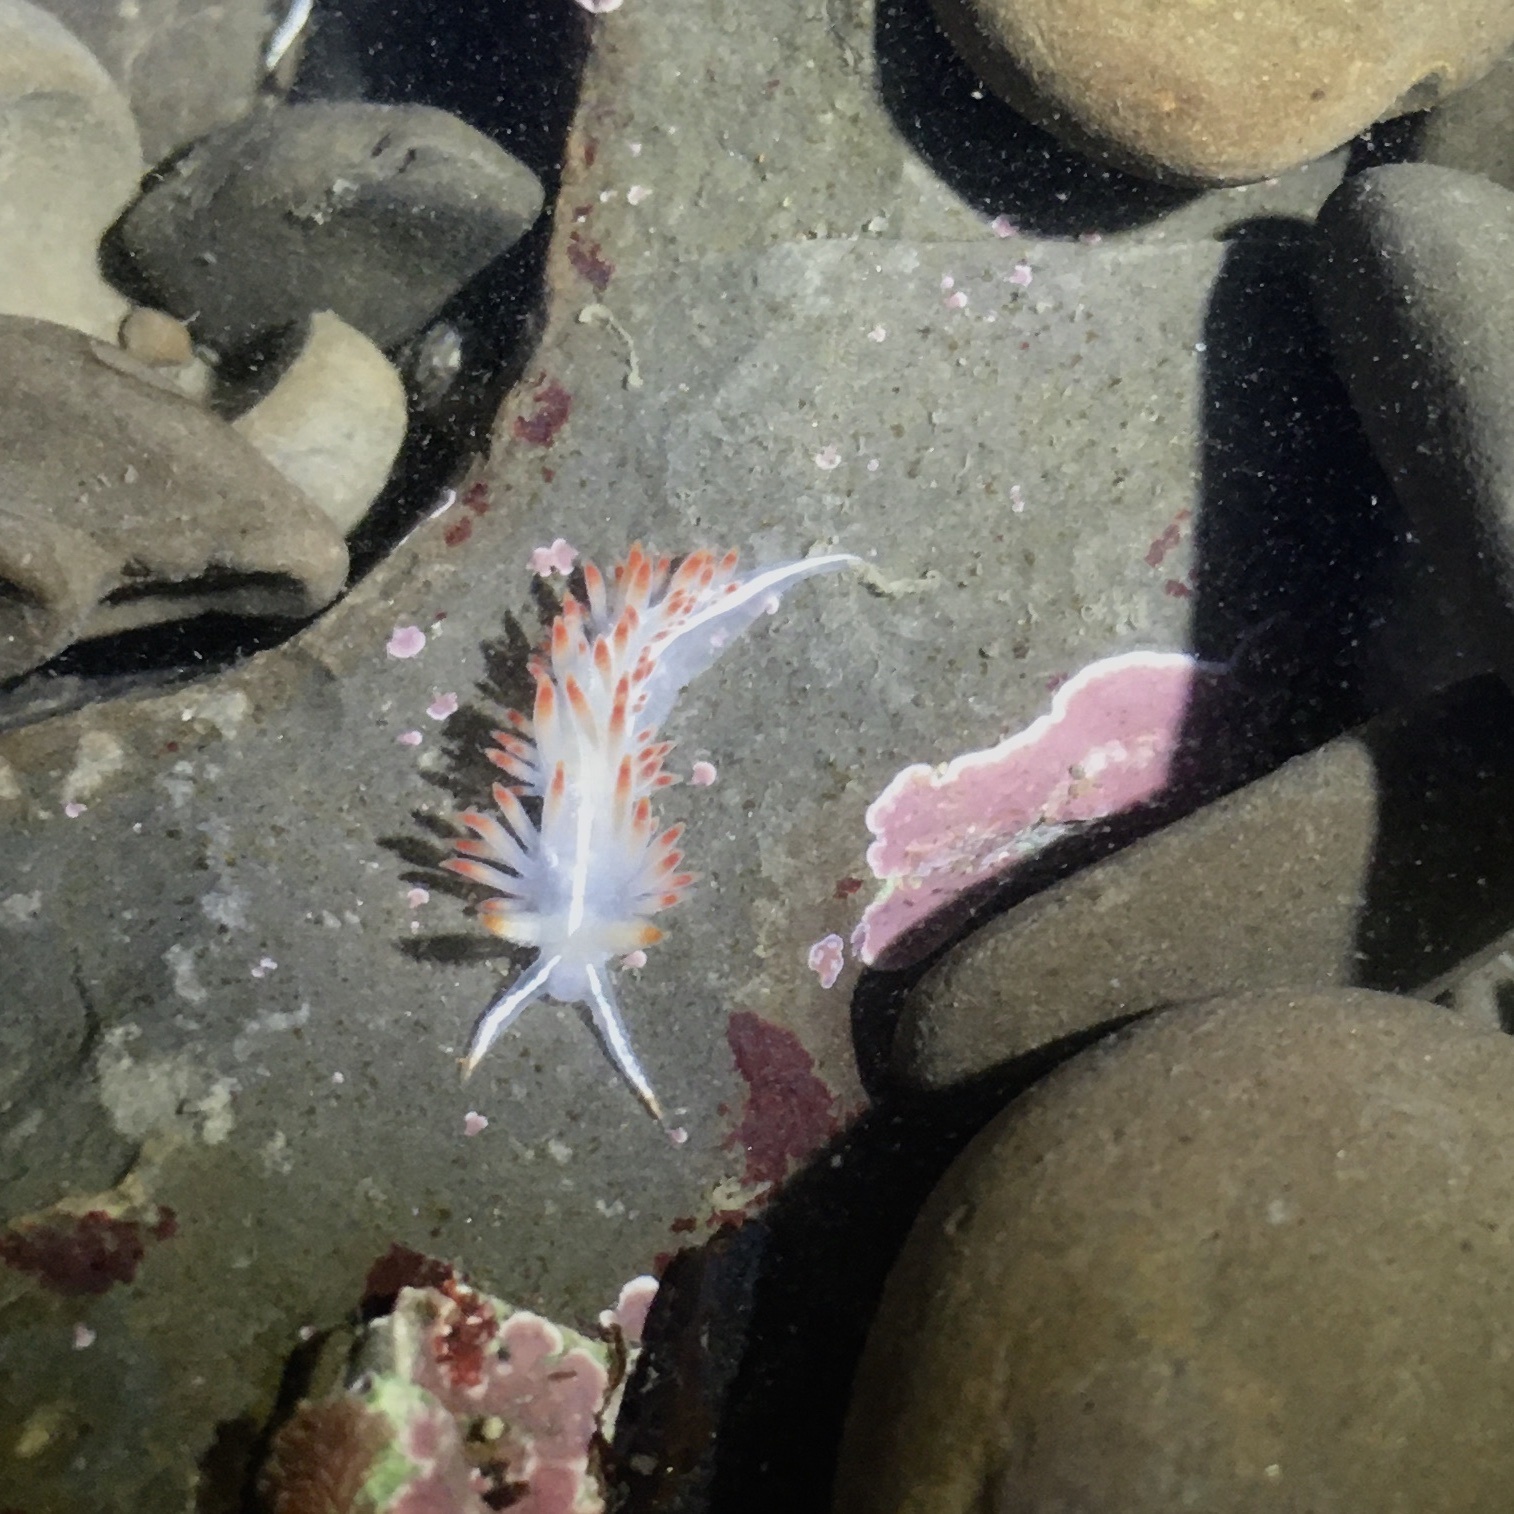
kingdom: Animalia
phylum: Mollusca
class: Gastropoda
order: Nudibranchia
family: Coryphellidae
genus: Coryphella
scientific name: Coryphella trilineata
